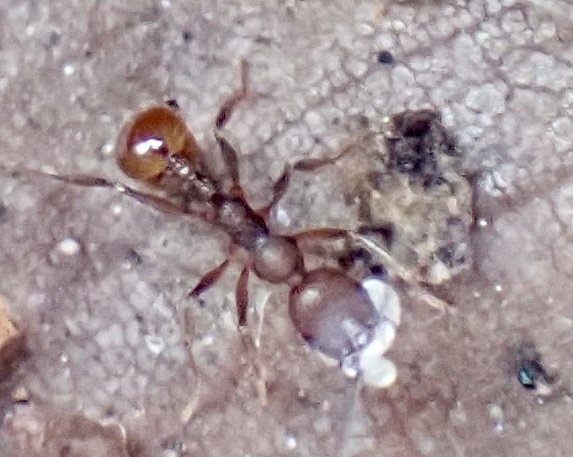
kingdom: Animalia
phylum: Arthropoda
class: Insecta
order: Hymenoptera
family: Formicidae
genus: Aphaenogaster
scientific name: Aphaenogaster fulva
